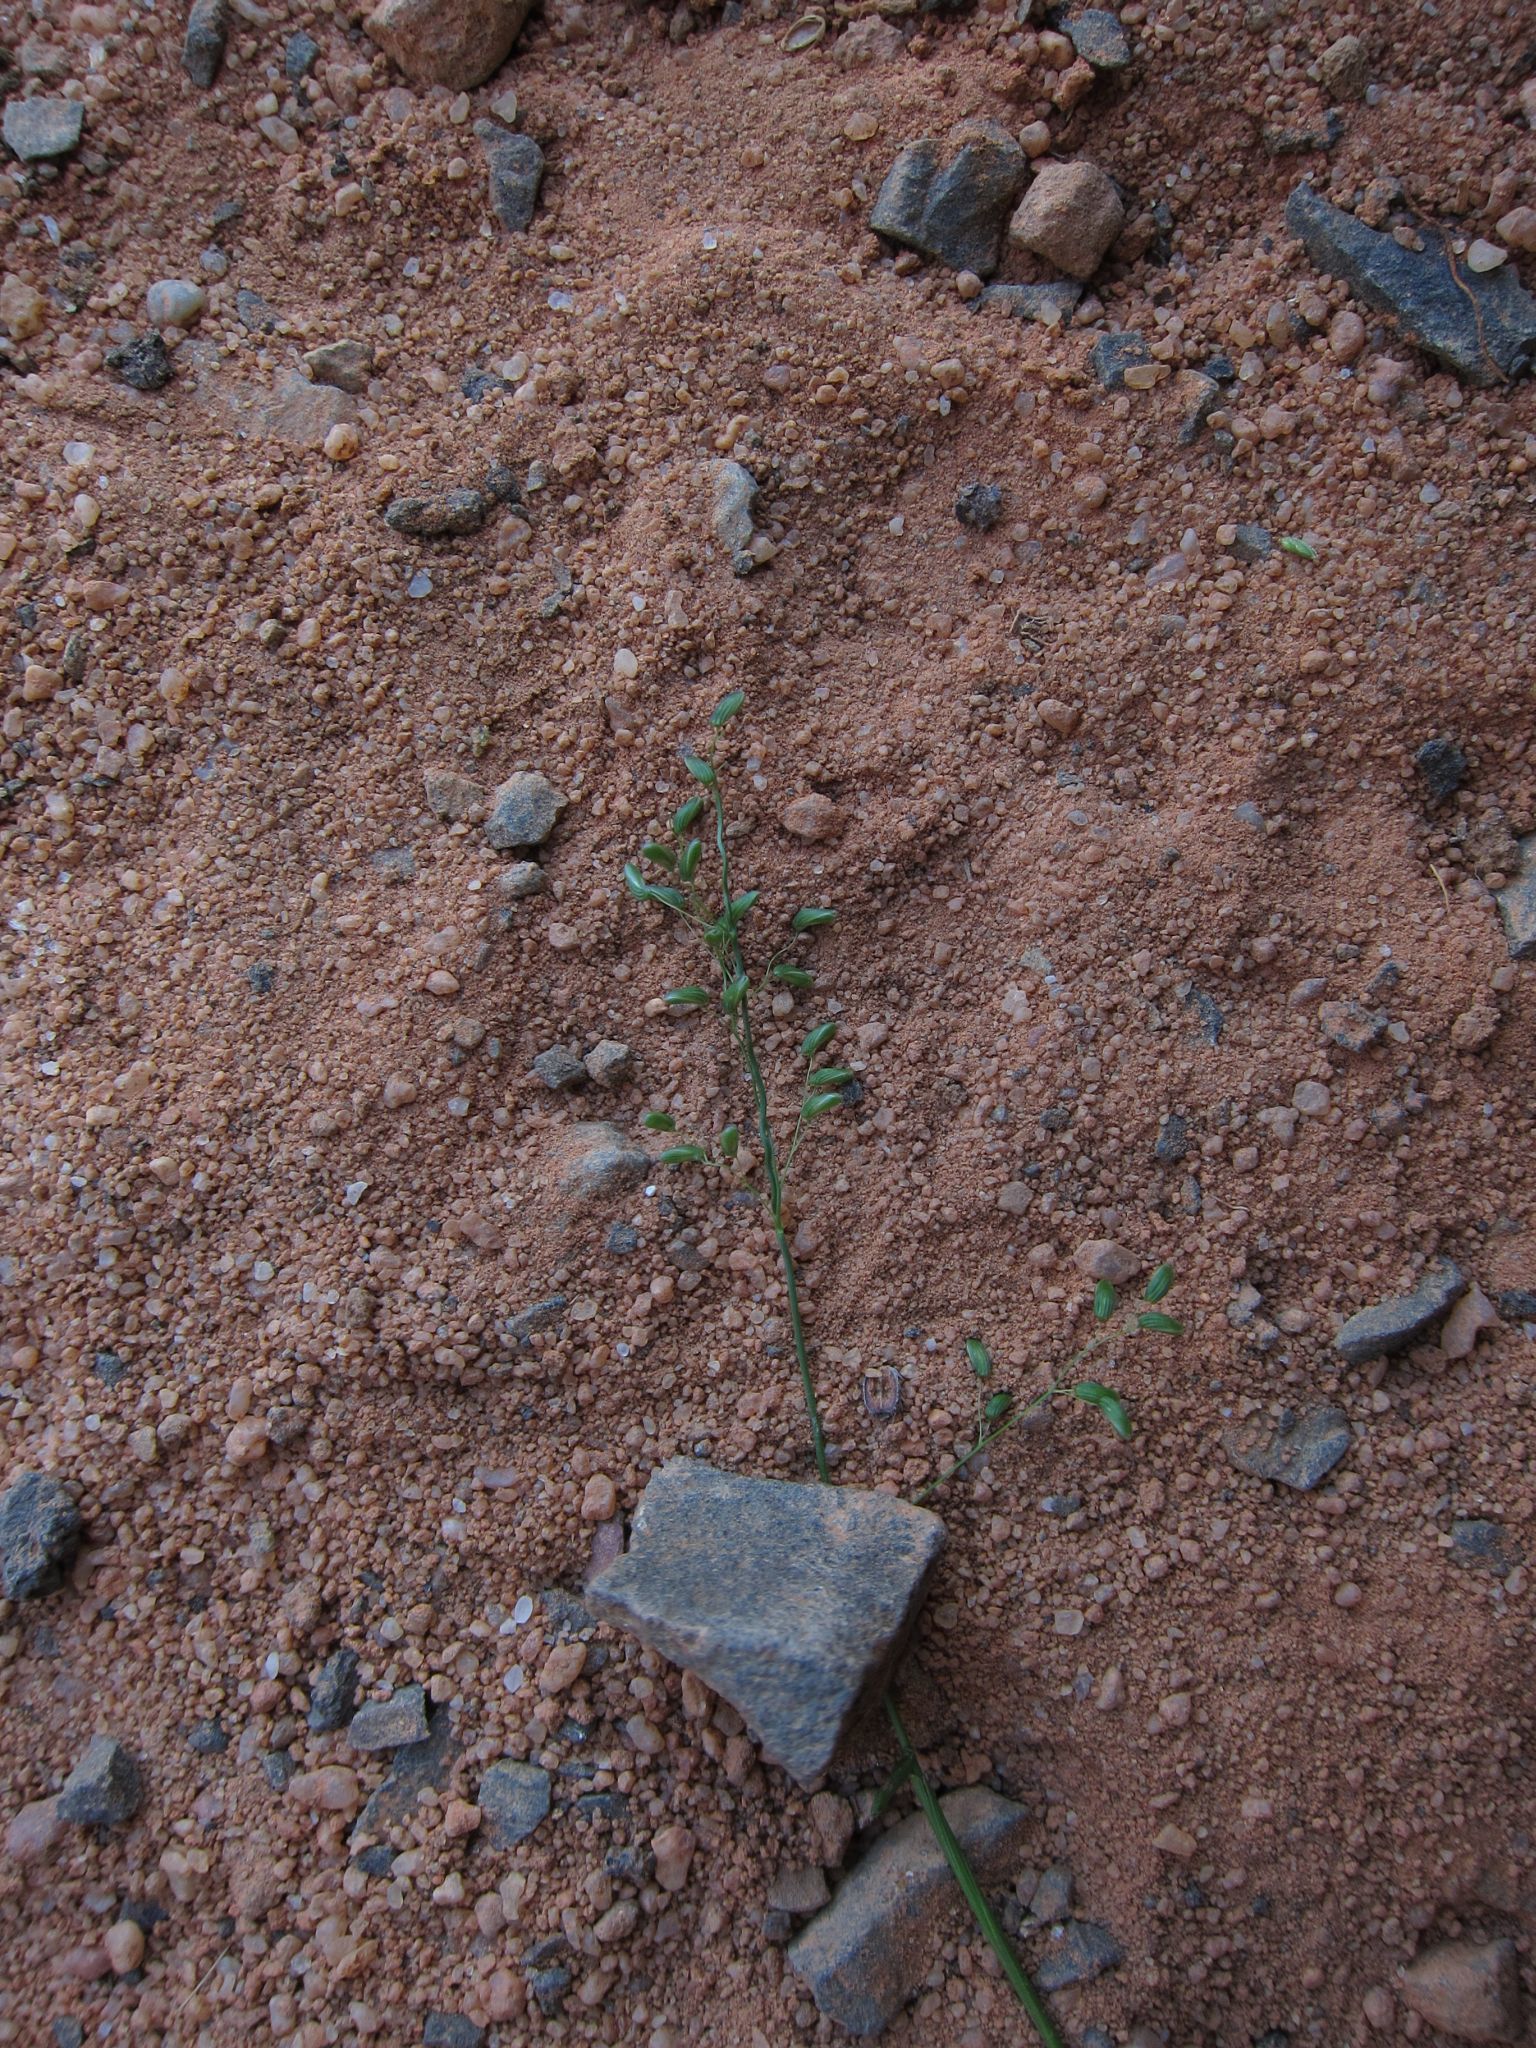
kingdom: Plantae
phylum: Tracheophyta
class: Liliopsida
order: Poales
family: Poaceae
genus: Sacciolepis
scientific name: Sacciolepis curvata
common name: Forest hood grass
